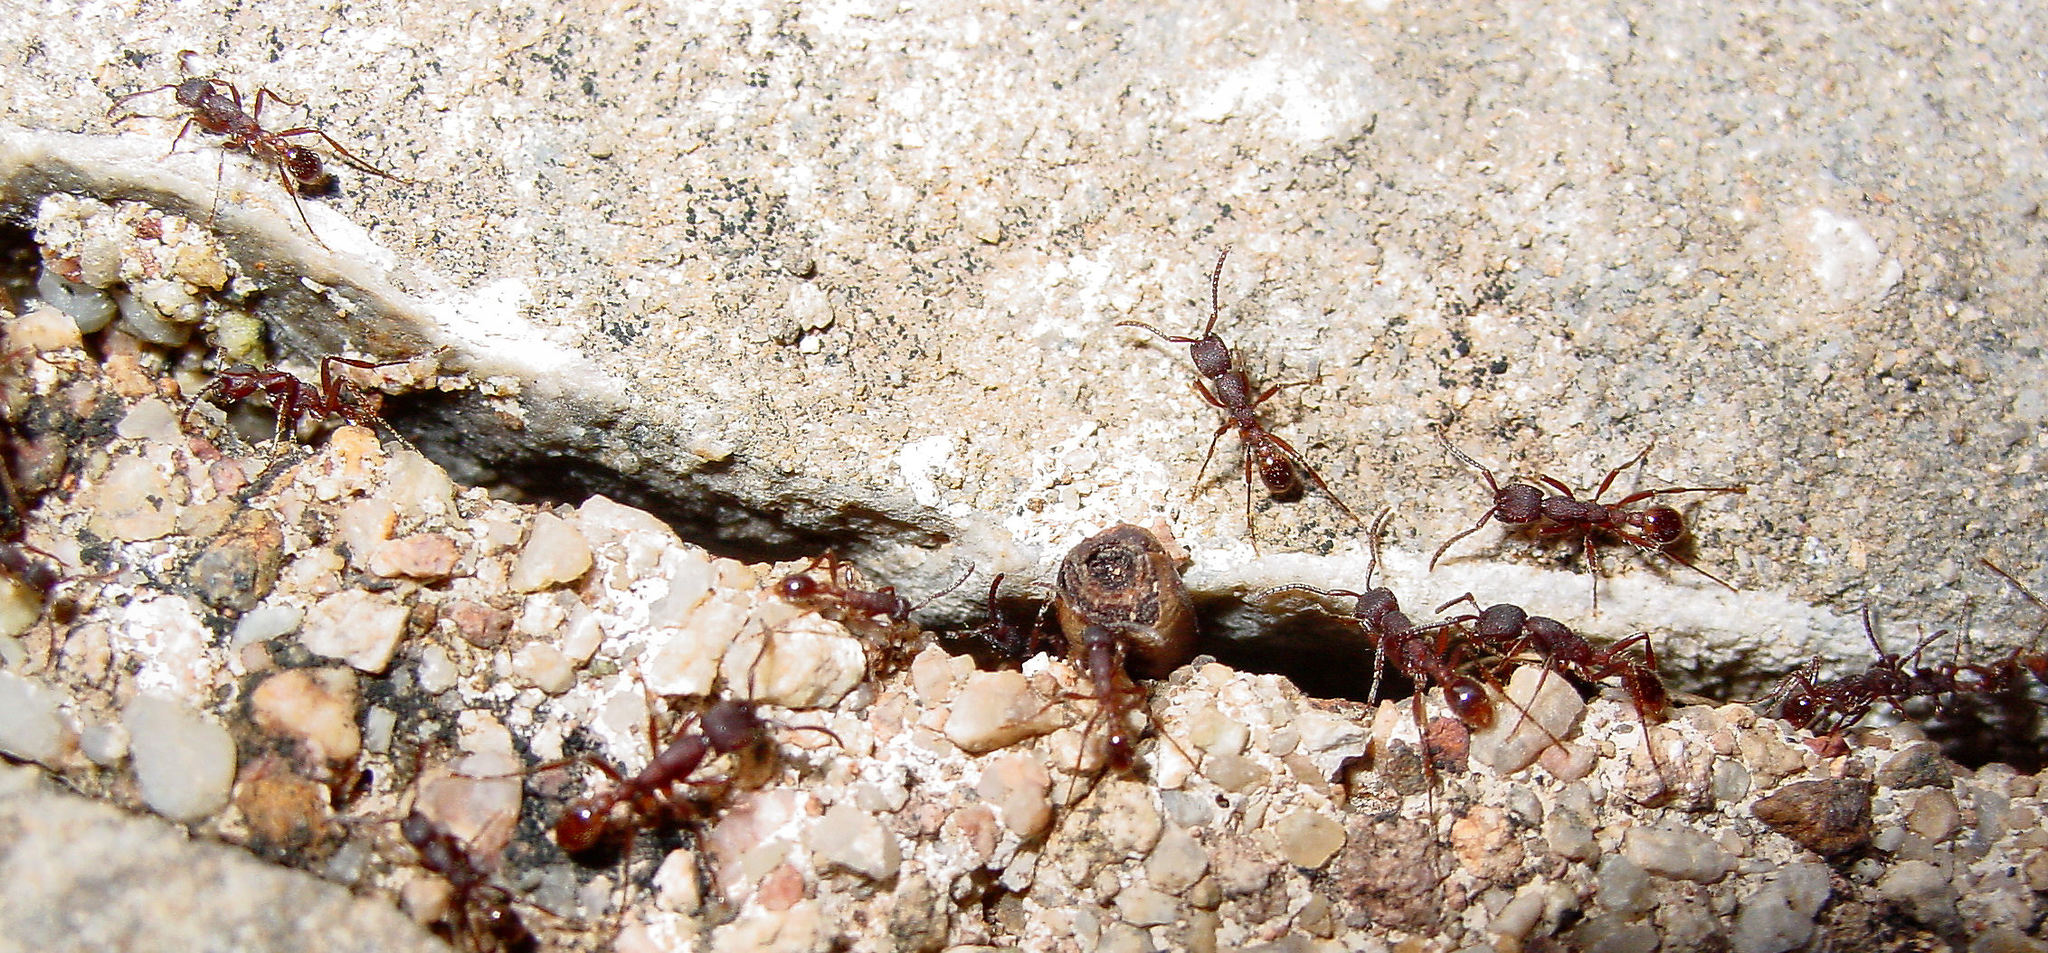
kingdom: Animalia
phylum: Arthropoda
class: Insecta
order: Hymenoptera
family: Formicidae
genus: Neivamyrmex
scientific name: Neivamyrmex rugulosus
